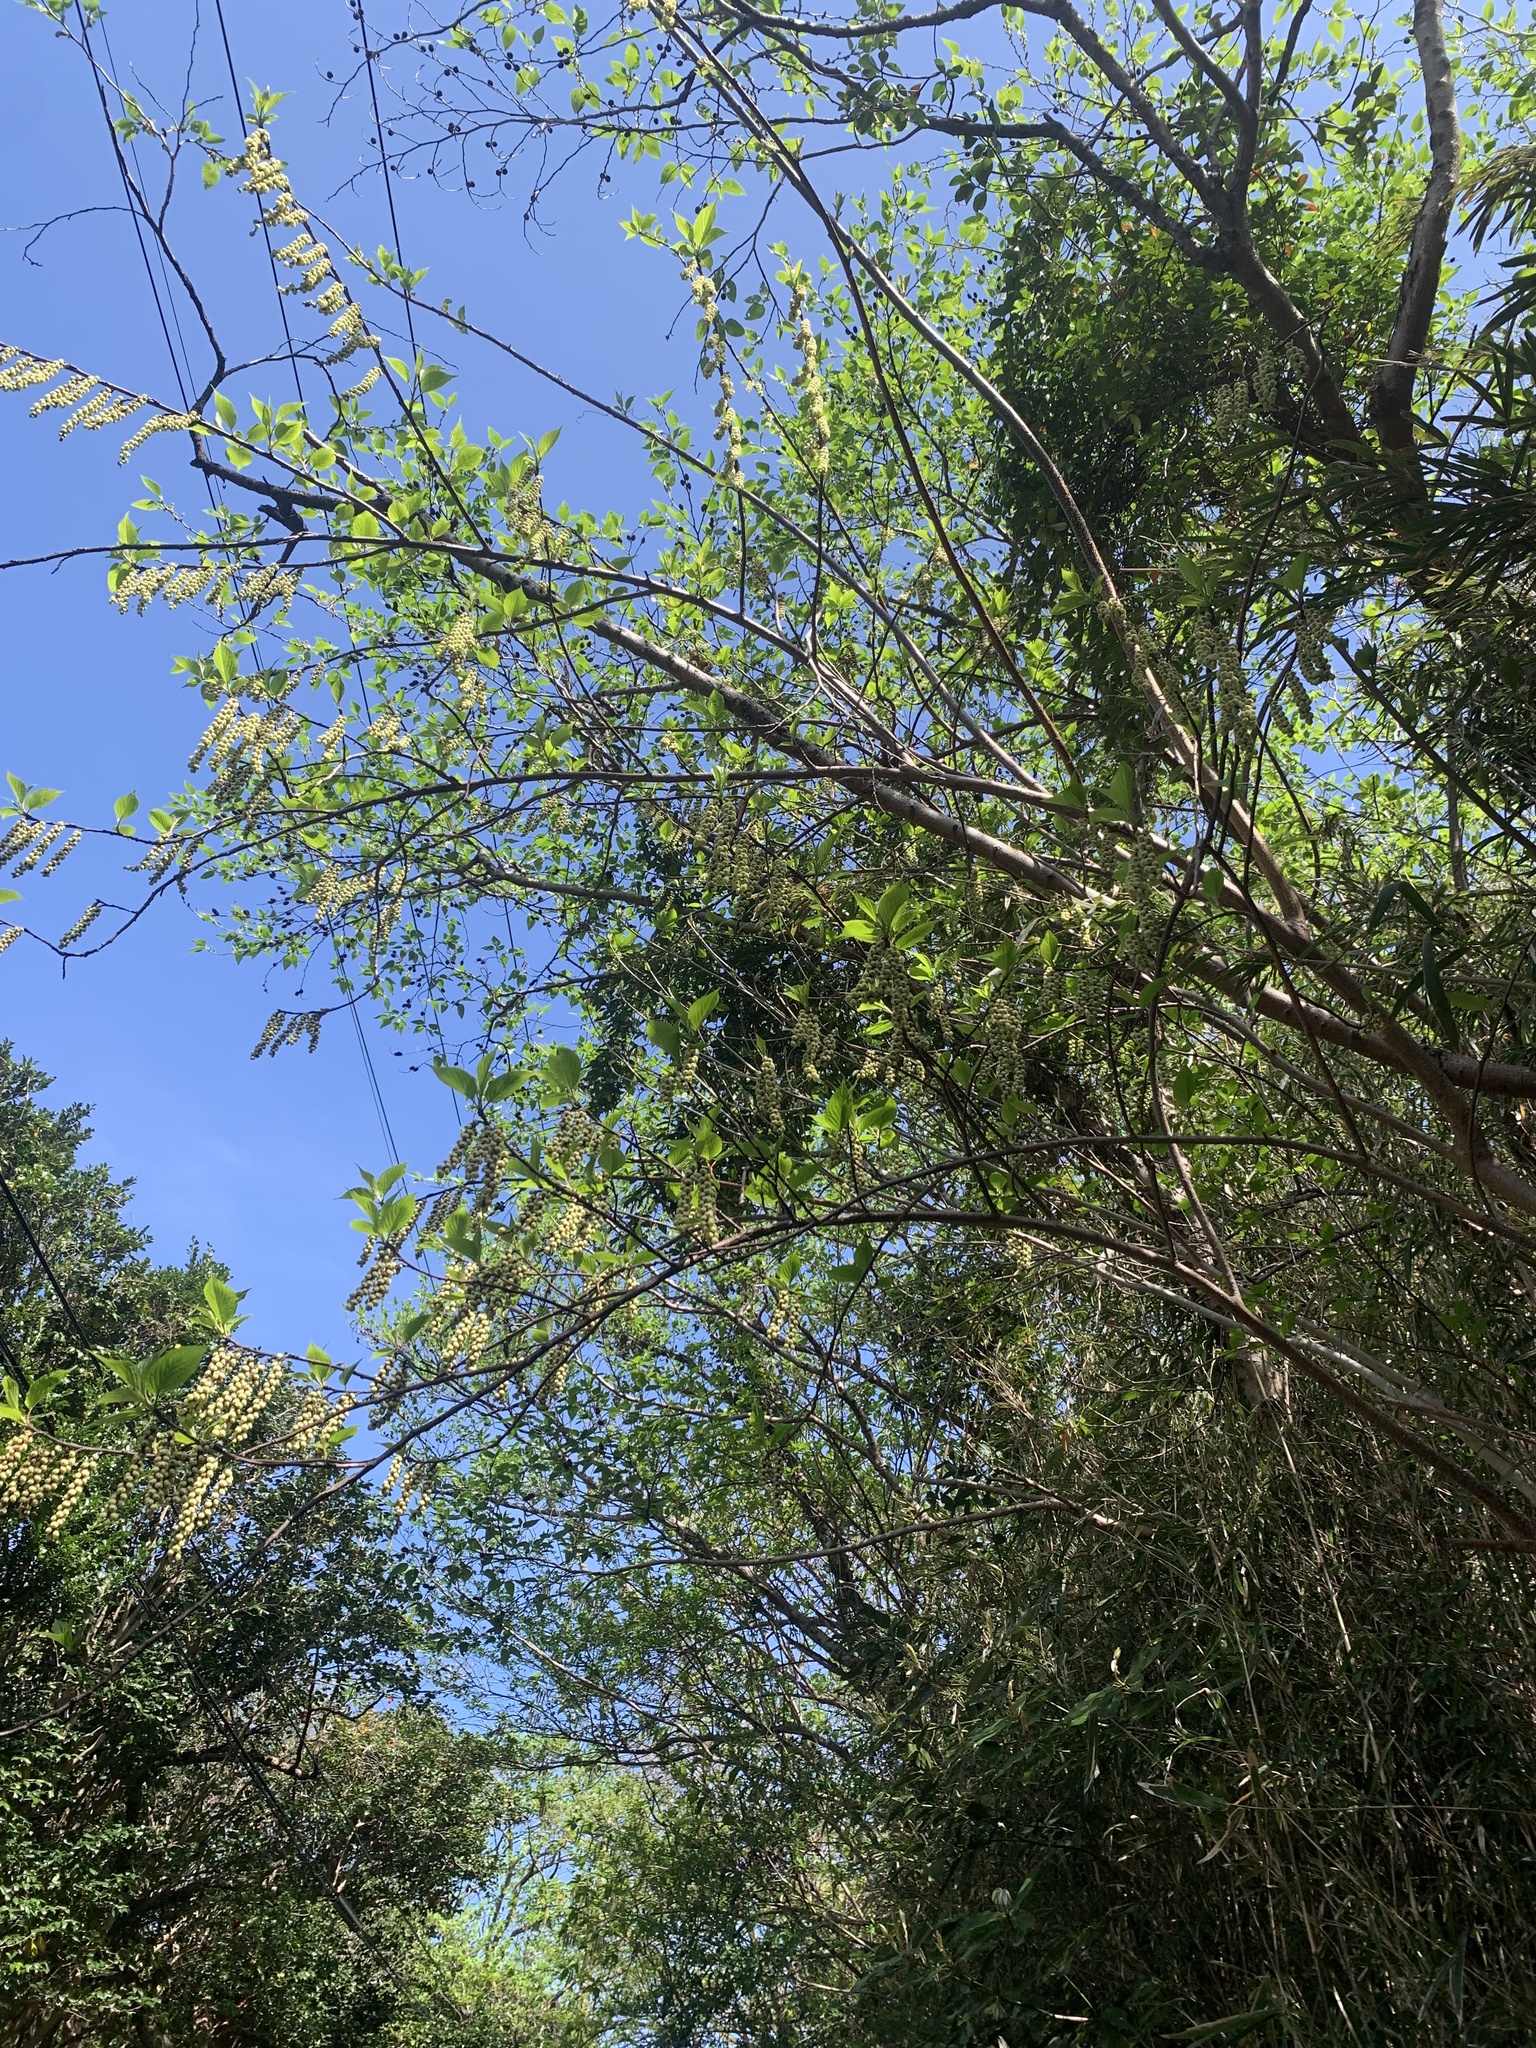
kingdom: Plantae
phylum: Tracheophyta
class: Magnoliopsida
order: Crossosomatales
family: Stachyuraceae
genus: Stachyurus
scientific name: Stachyurus praecox
